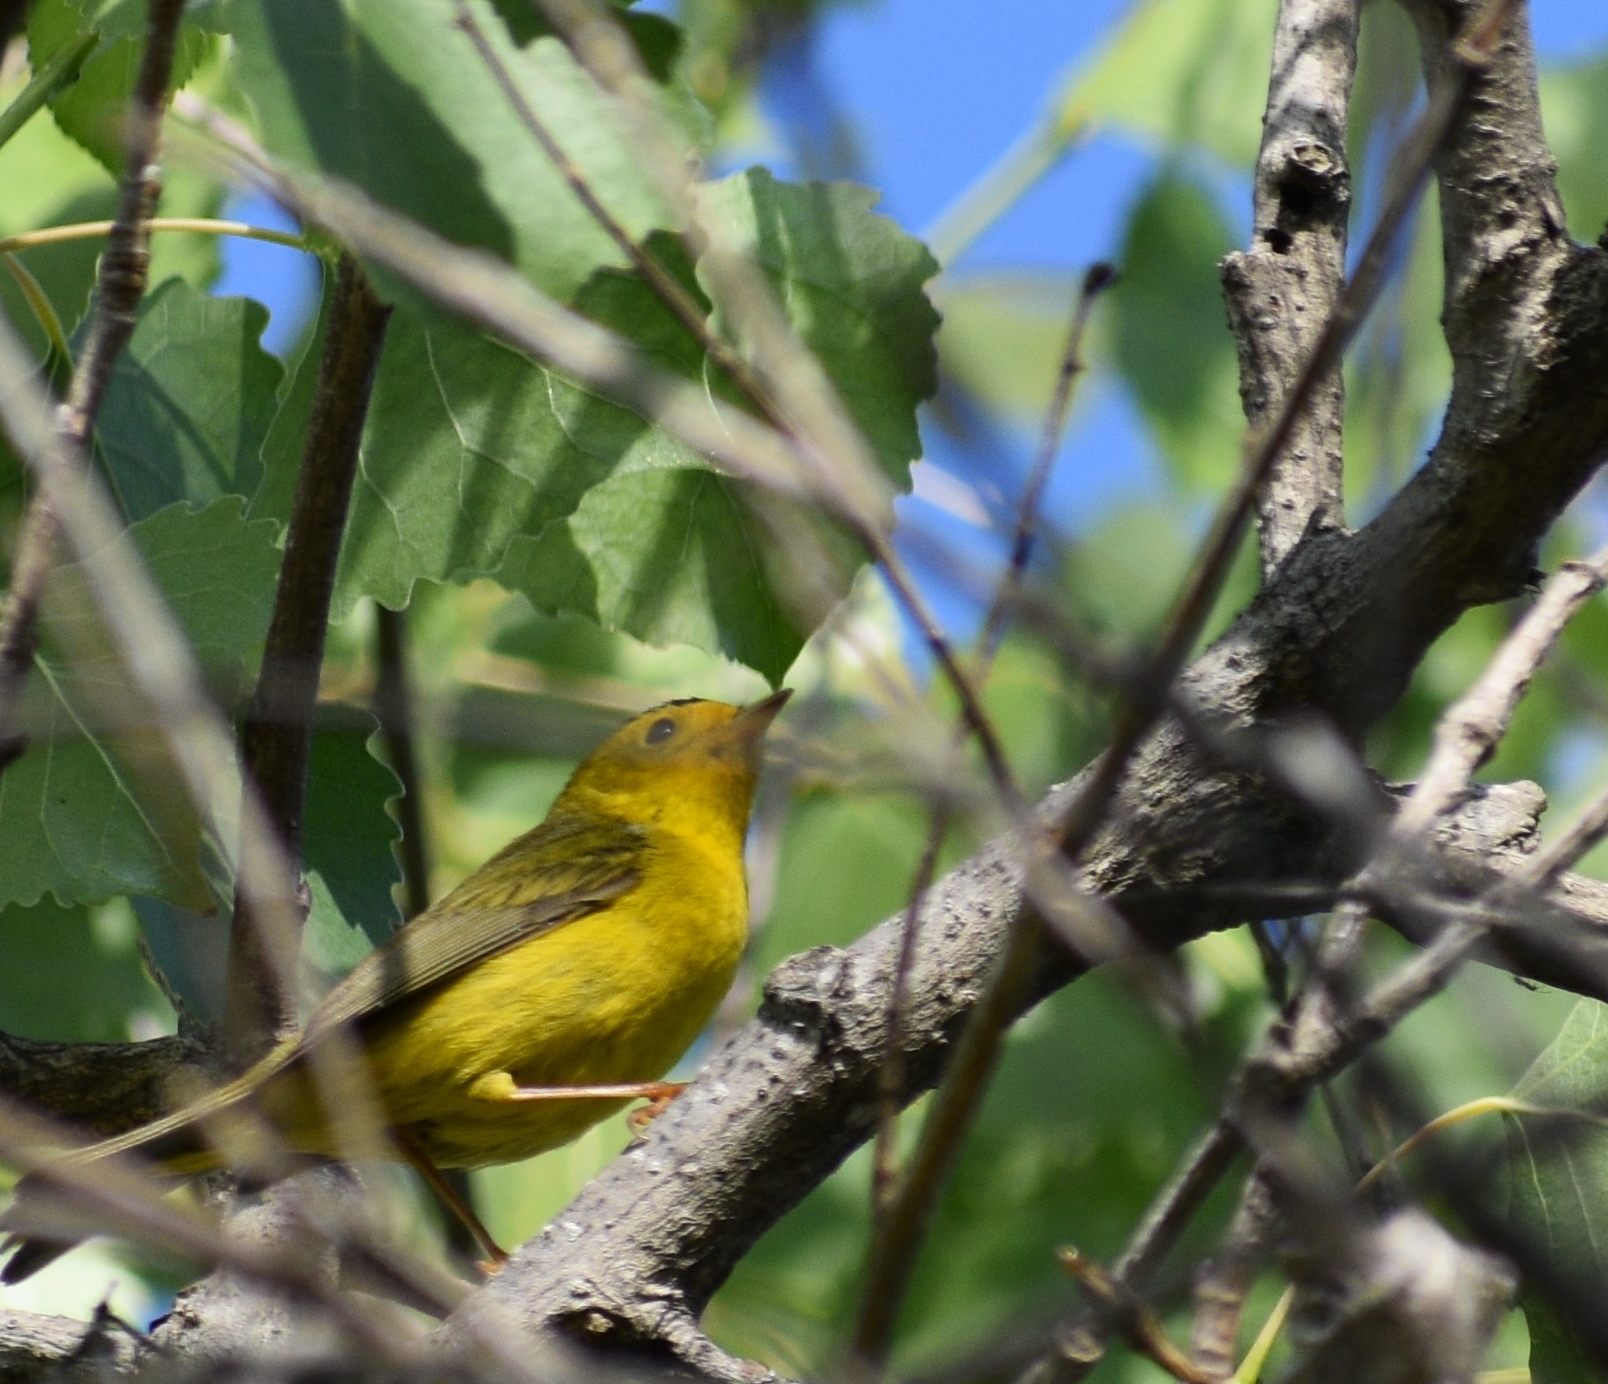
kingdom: Animalia
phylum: Chordata
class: Aves
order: Passeriformes
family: Parulidae
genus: Cardellina
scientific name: Cardellina pusilla
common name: Wilson's warbler
